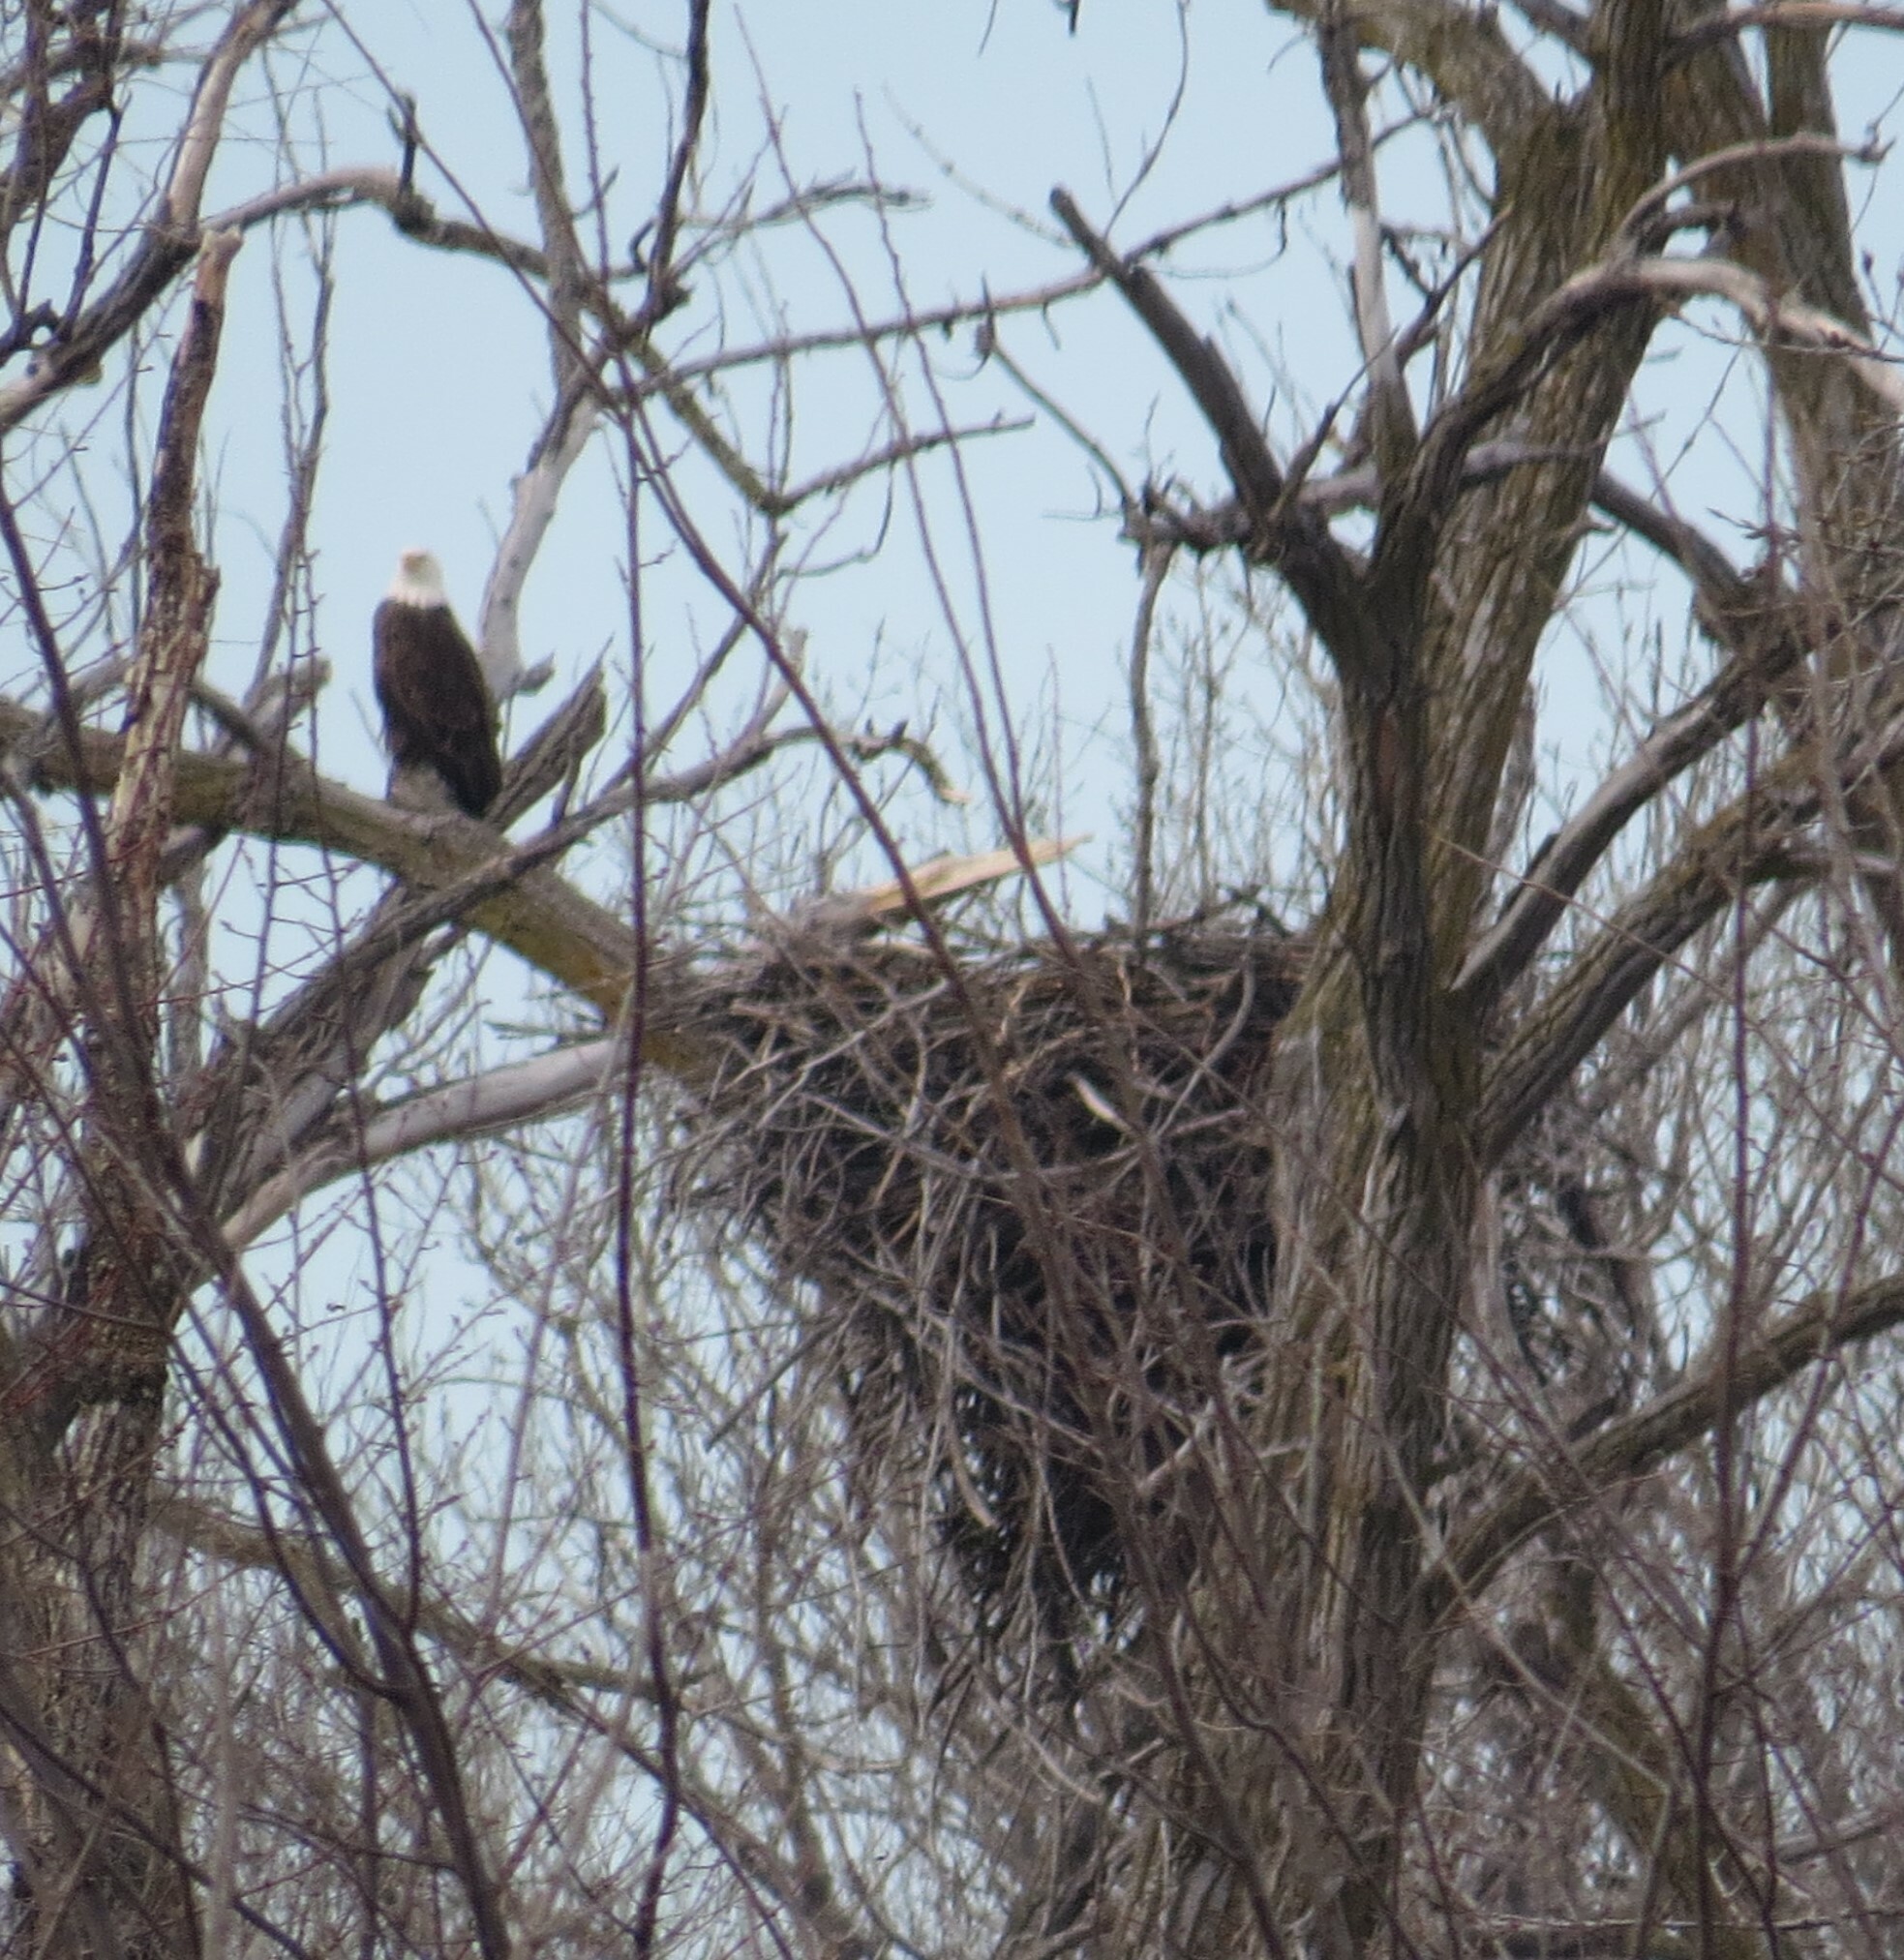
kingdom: Animalia
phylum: Chordata
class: Aves
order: Accipitriformes
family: Accipitridae
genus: Haliaeetus
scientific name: Haliaeetus leucocephalus
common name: Bald eagle
